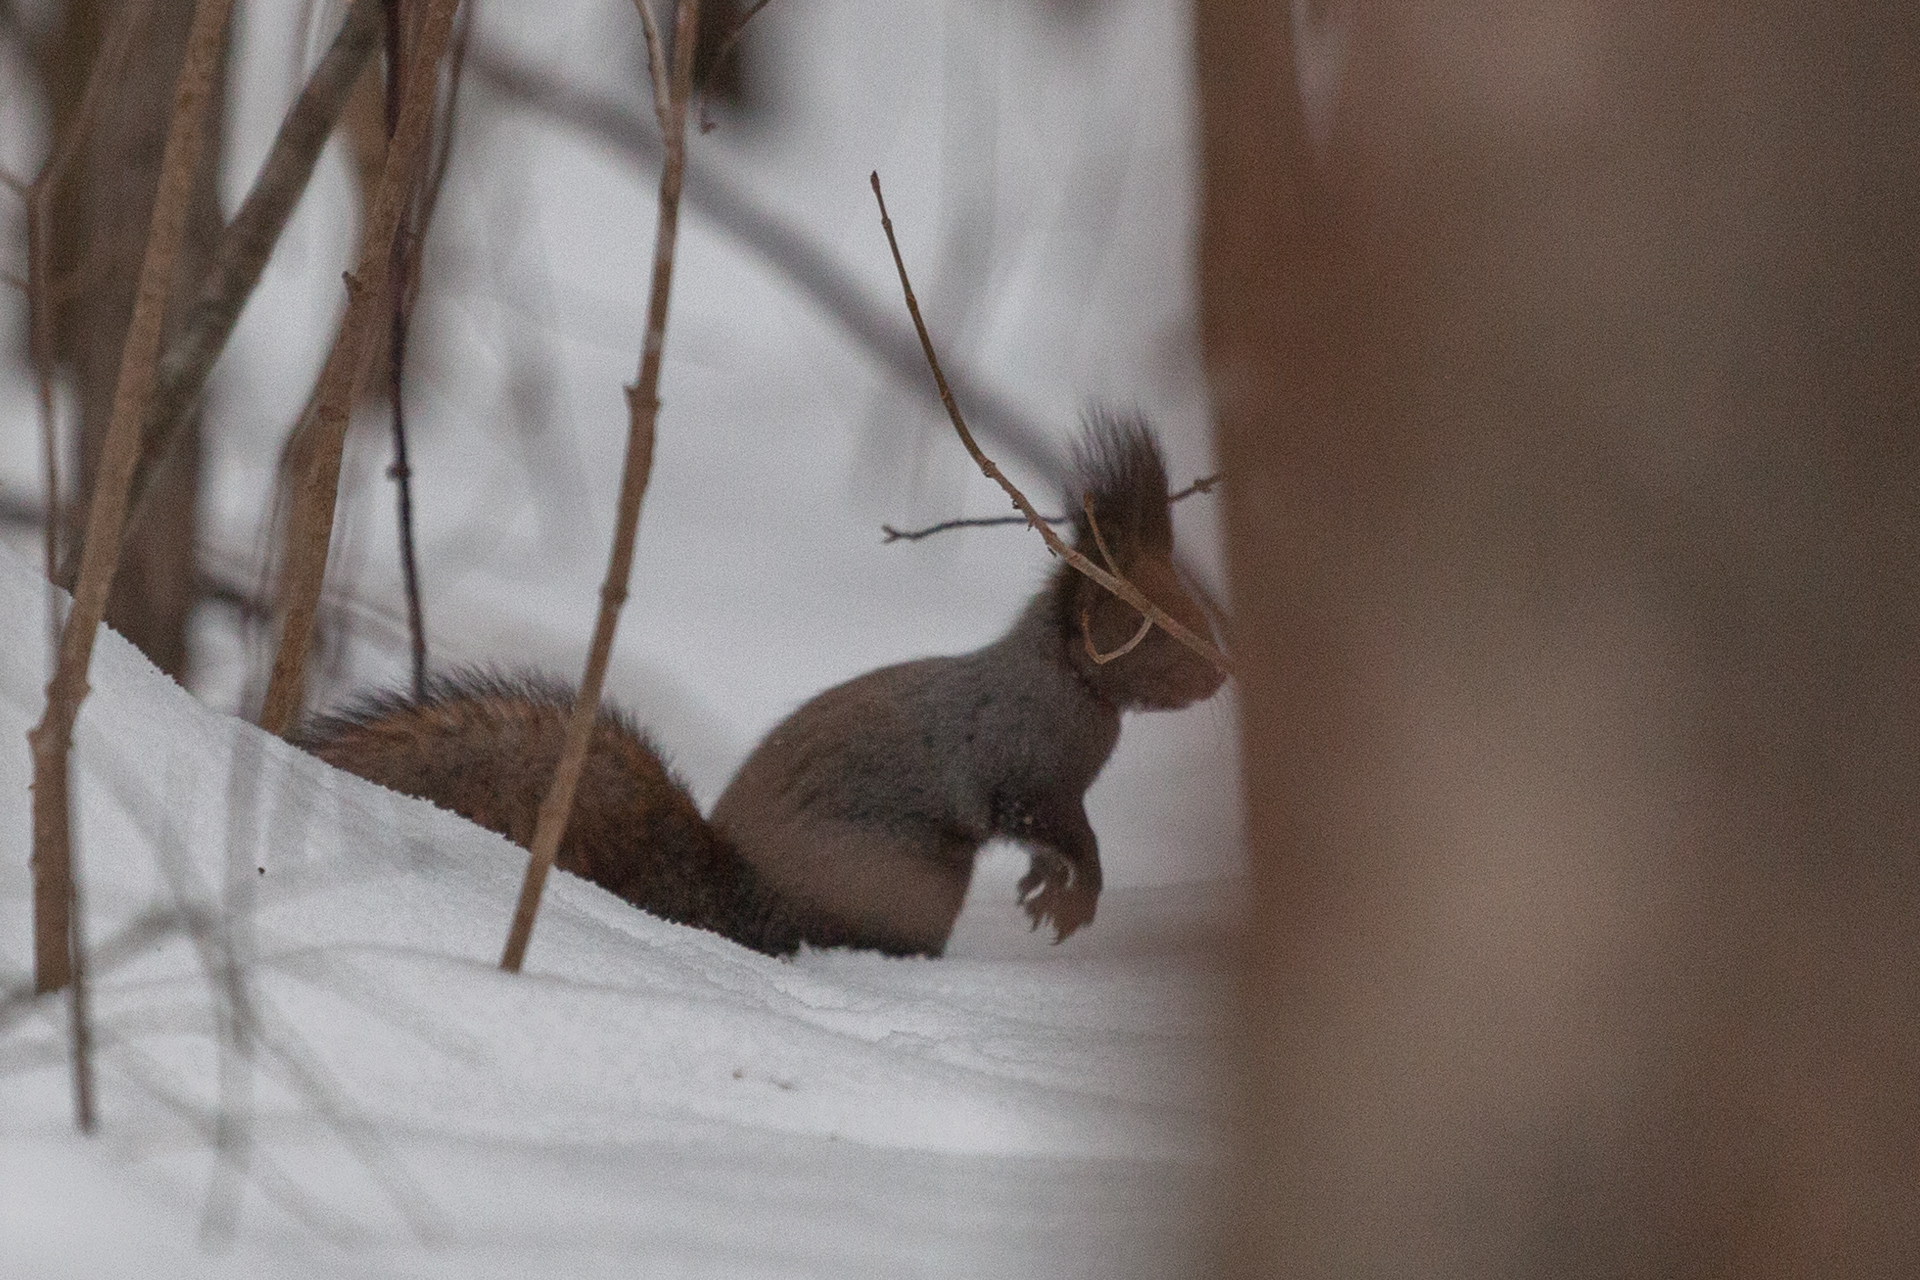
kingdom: Animalia
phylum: Chordata
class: Mammalia
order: Rodentia
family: Sciuridae
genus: Sciurus
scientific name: Sciurus vulgaris
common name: Eurasian red squirrel
